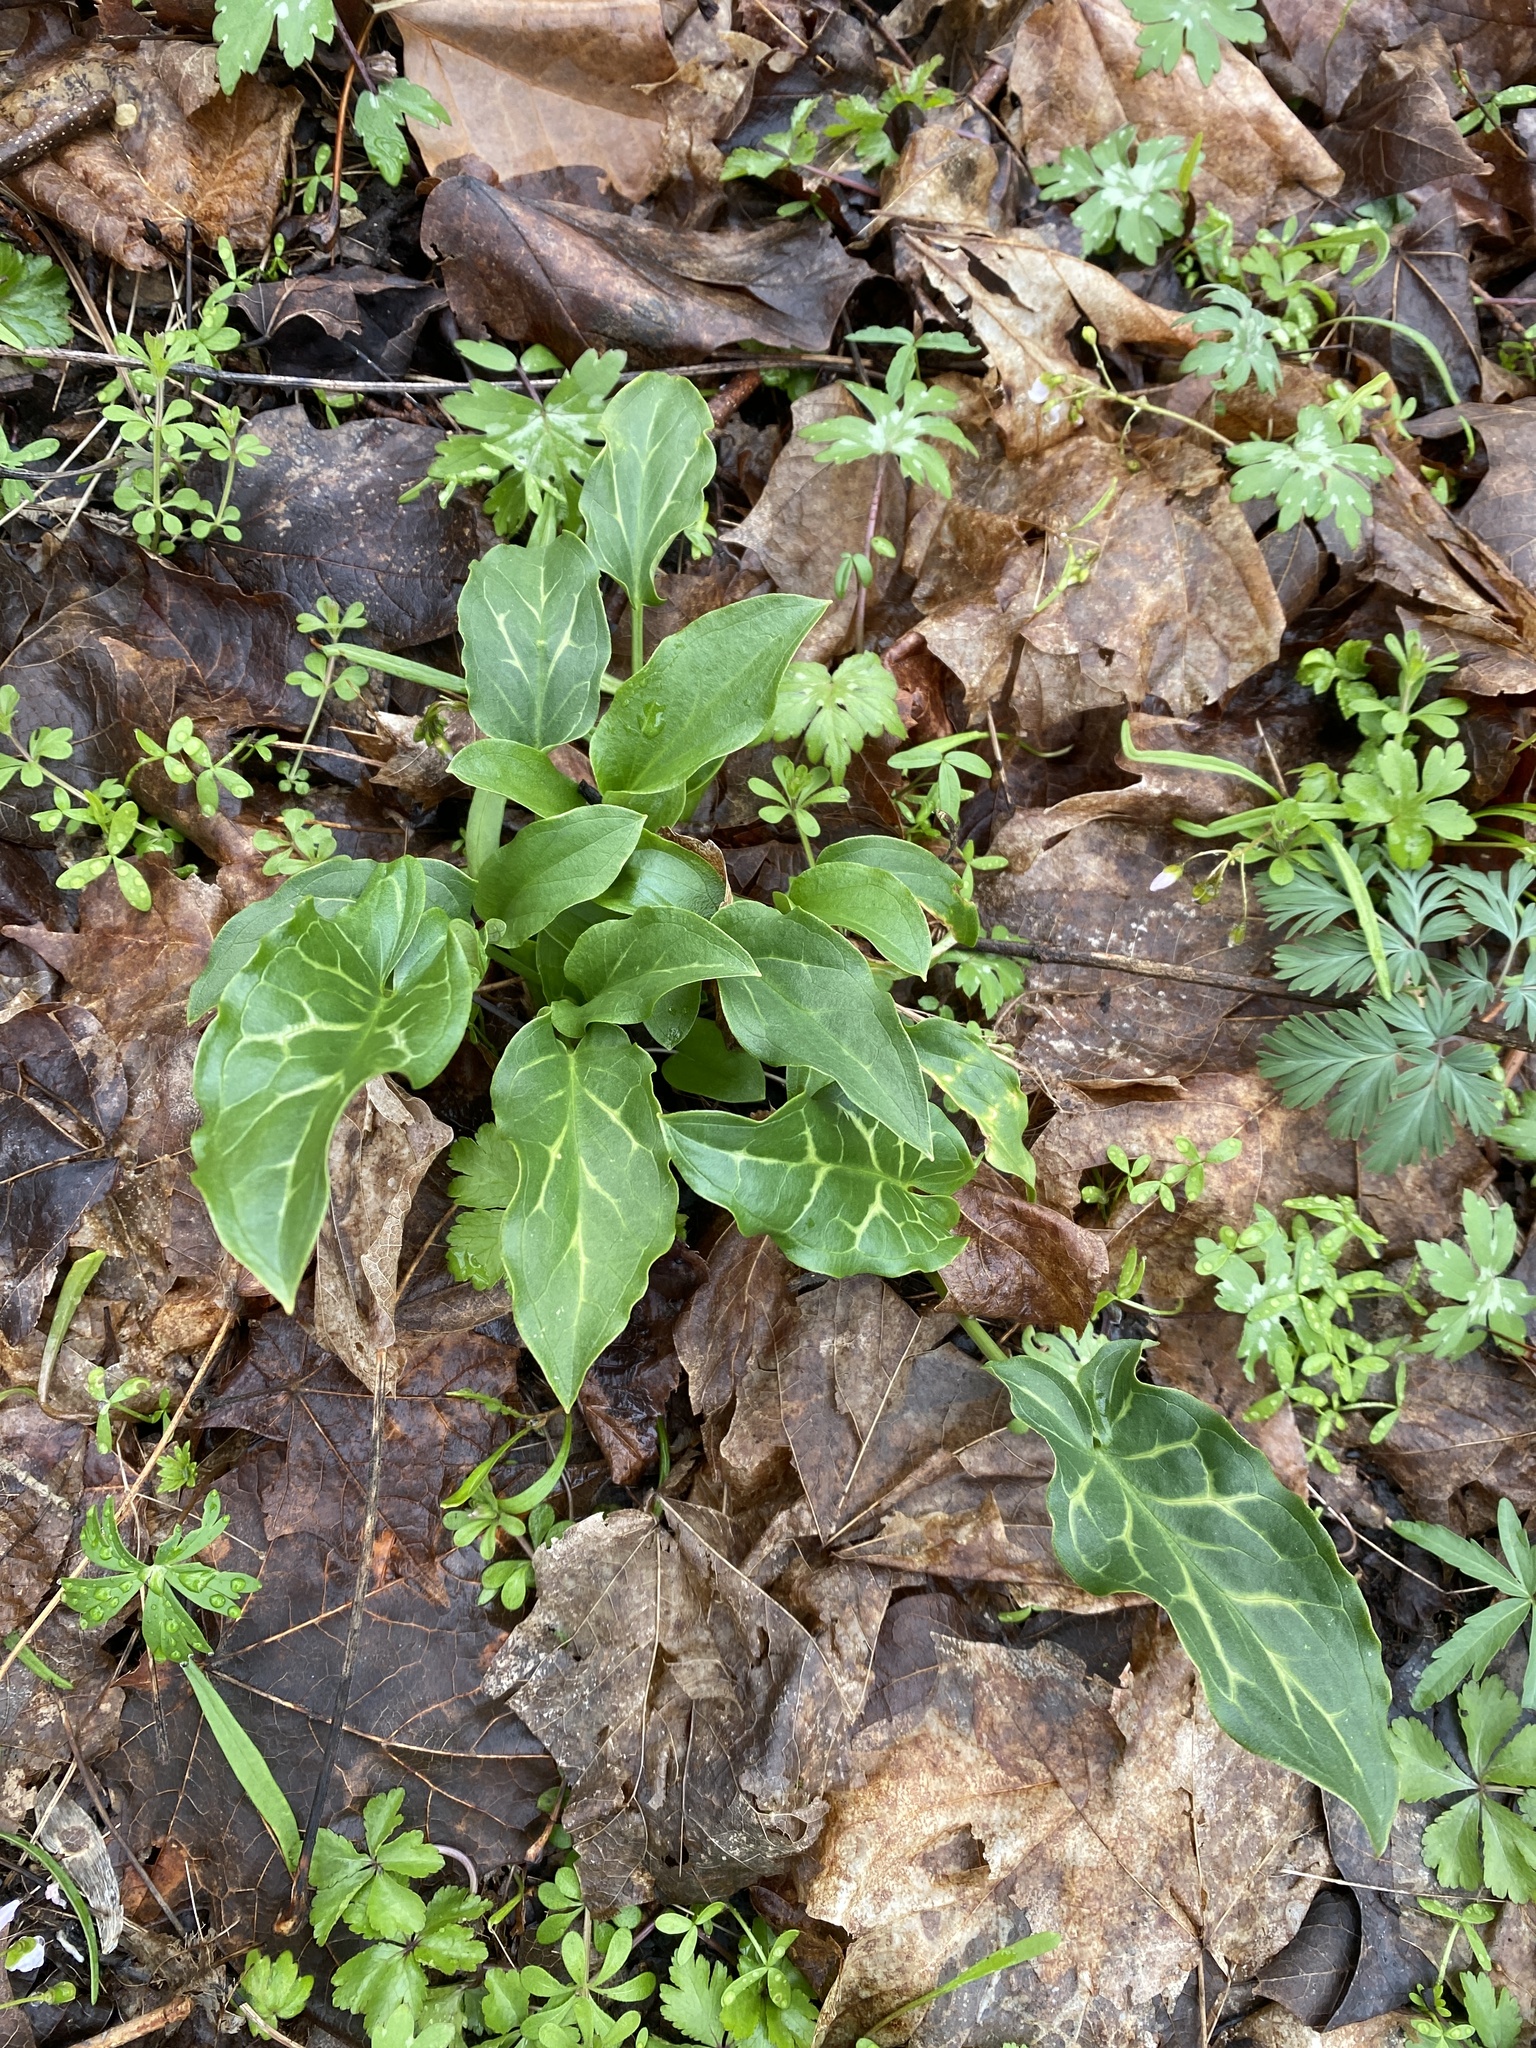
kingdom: Plantae
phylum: Tracheophyta
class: Liliopsida
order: Alismatales
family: Araceae
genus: Arum
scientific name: Arum italicum
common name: Italian lords-and-ladies
